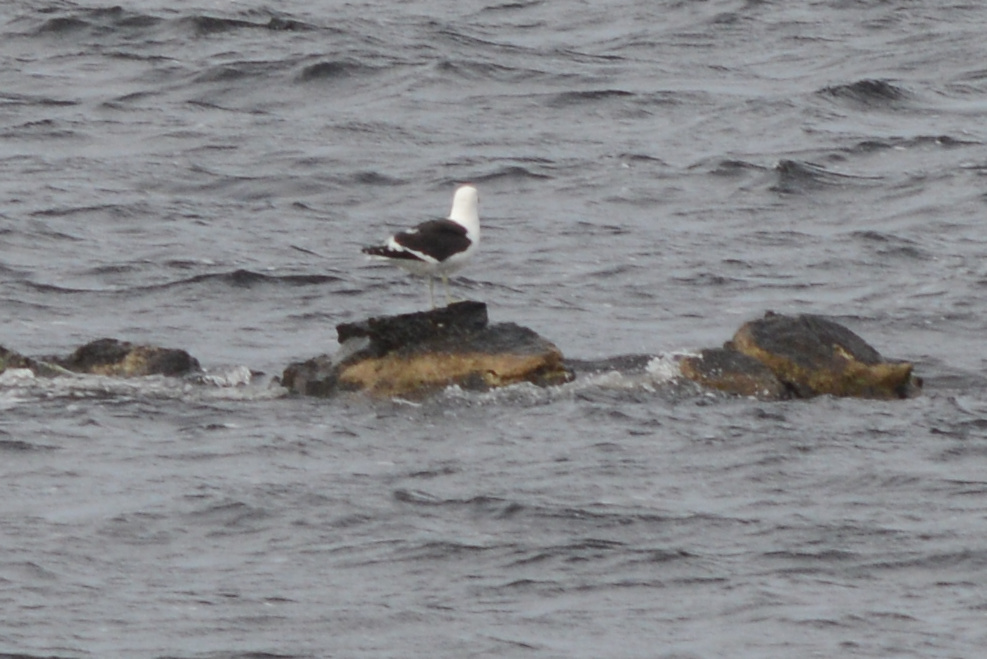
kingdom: Animalia
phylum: Chordata
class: Aves
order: Charadriiformes
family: Laridae
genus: Larus
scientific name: Larus dominicanus
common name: Kelp gull
